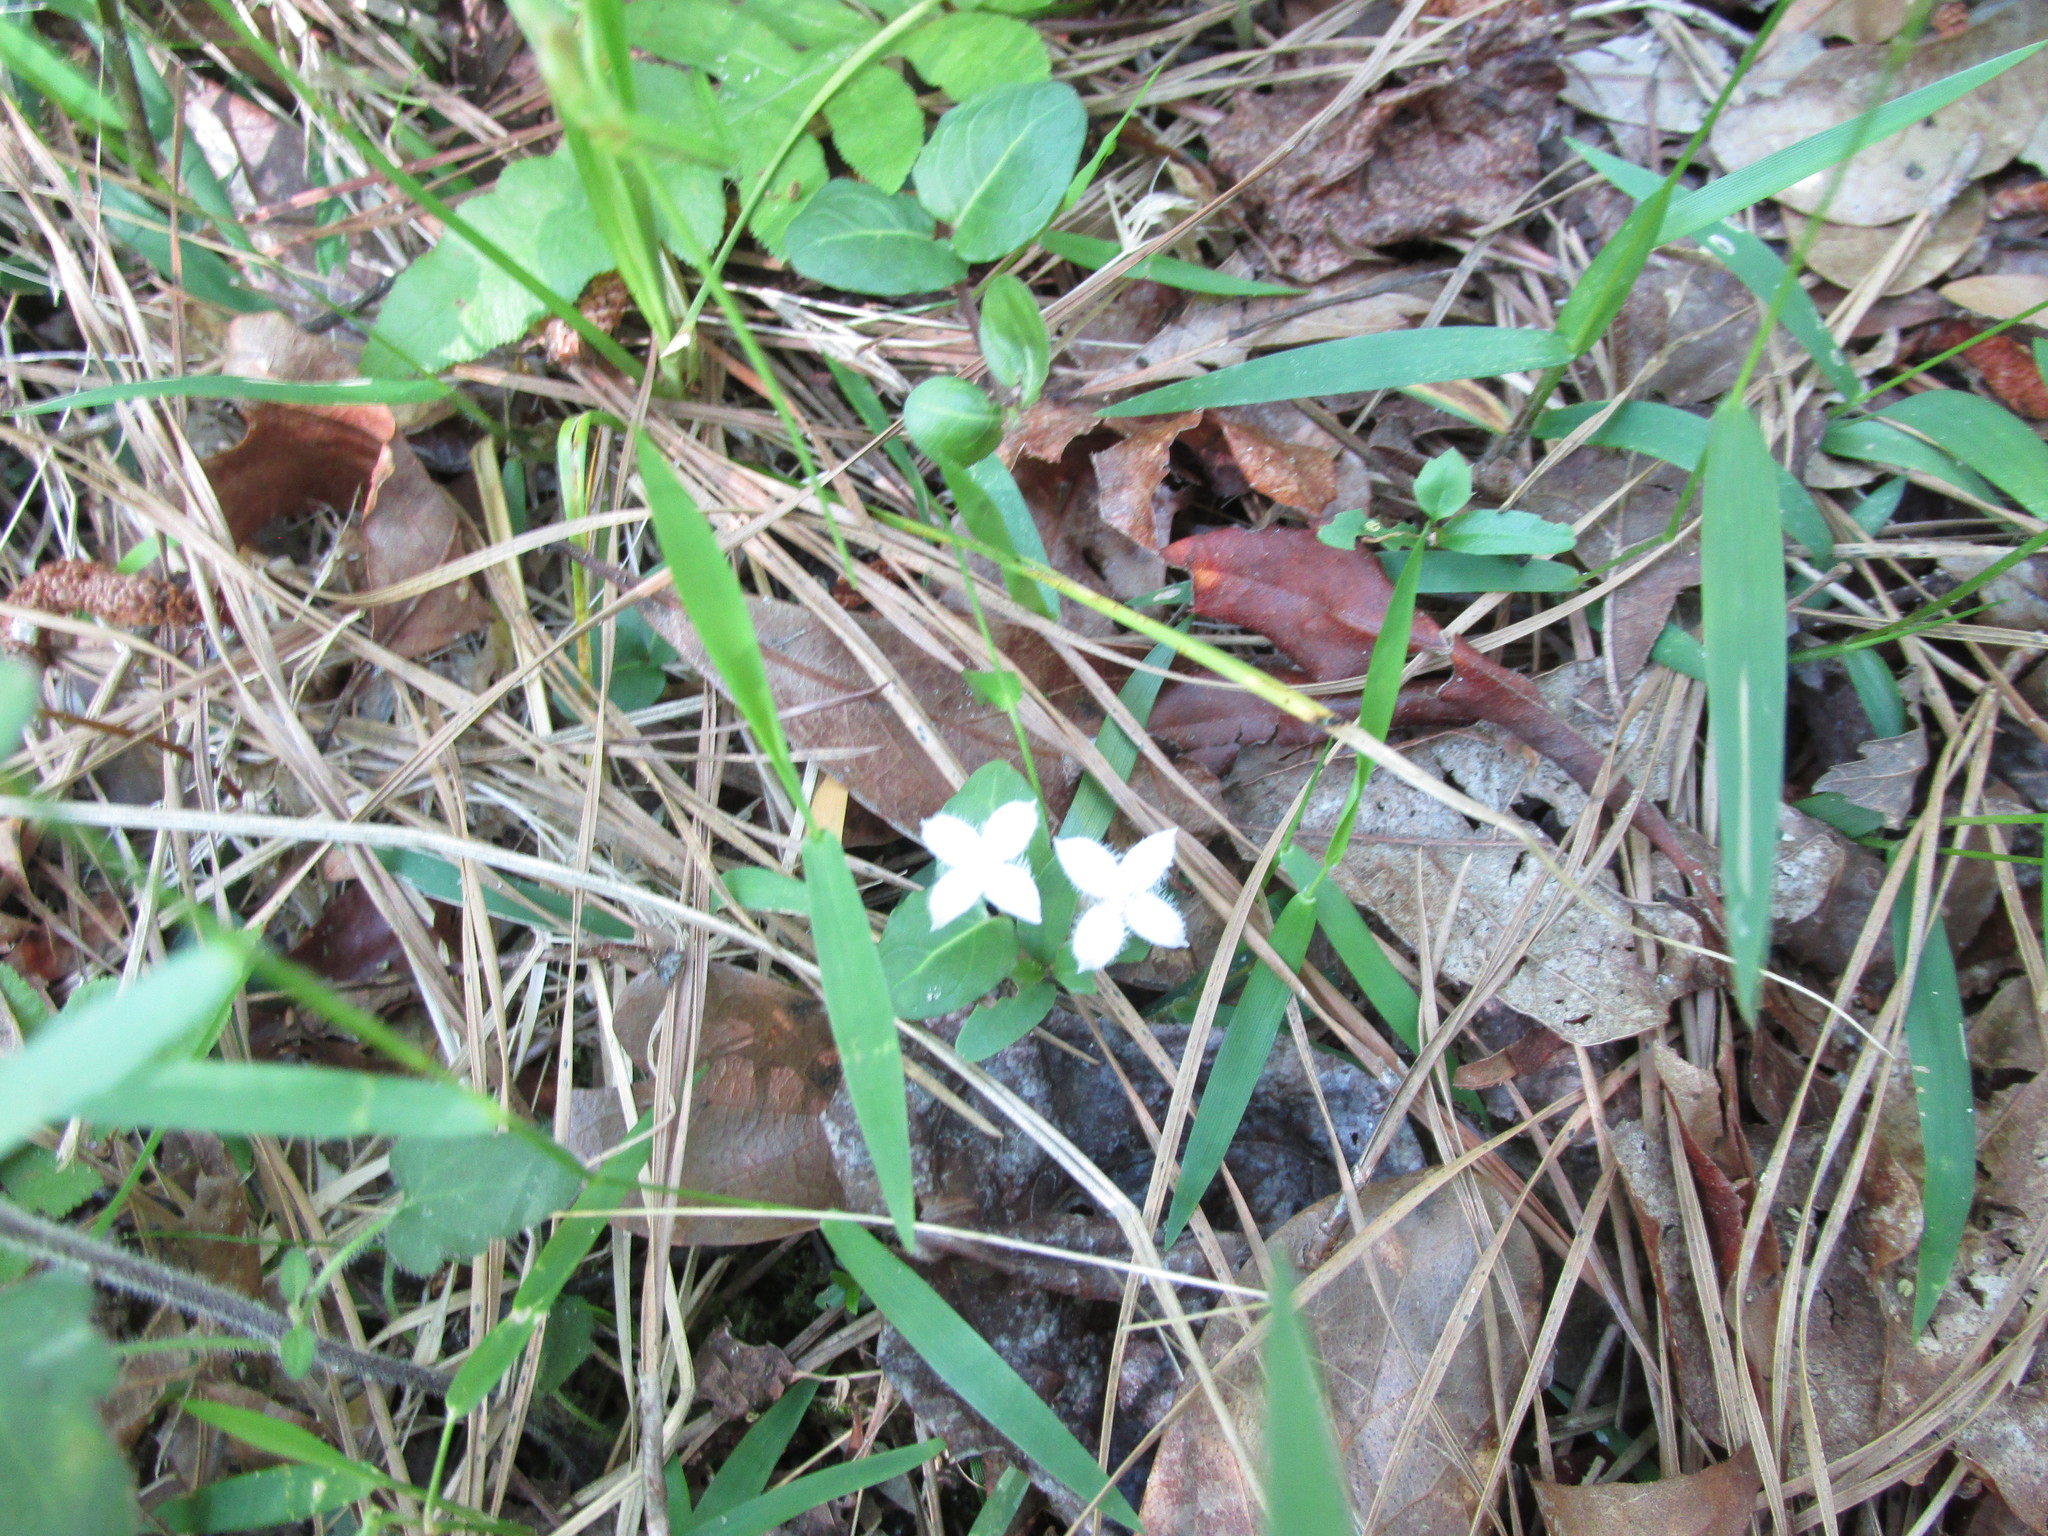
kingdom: Plantae
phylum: Tracheophyta
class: Magnoliopsida
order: Gentianales
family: Rubiaceae
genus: Mitchella
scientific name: Mitchella repens
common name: Partridge-berry
